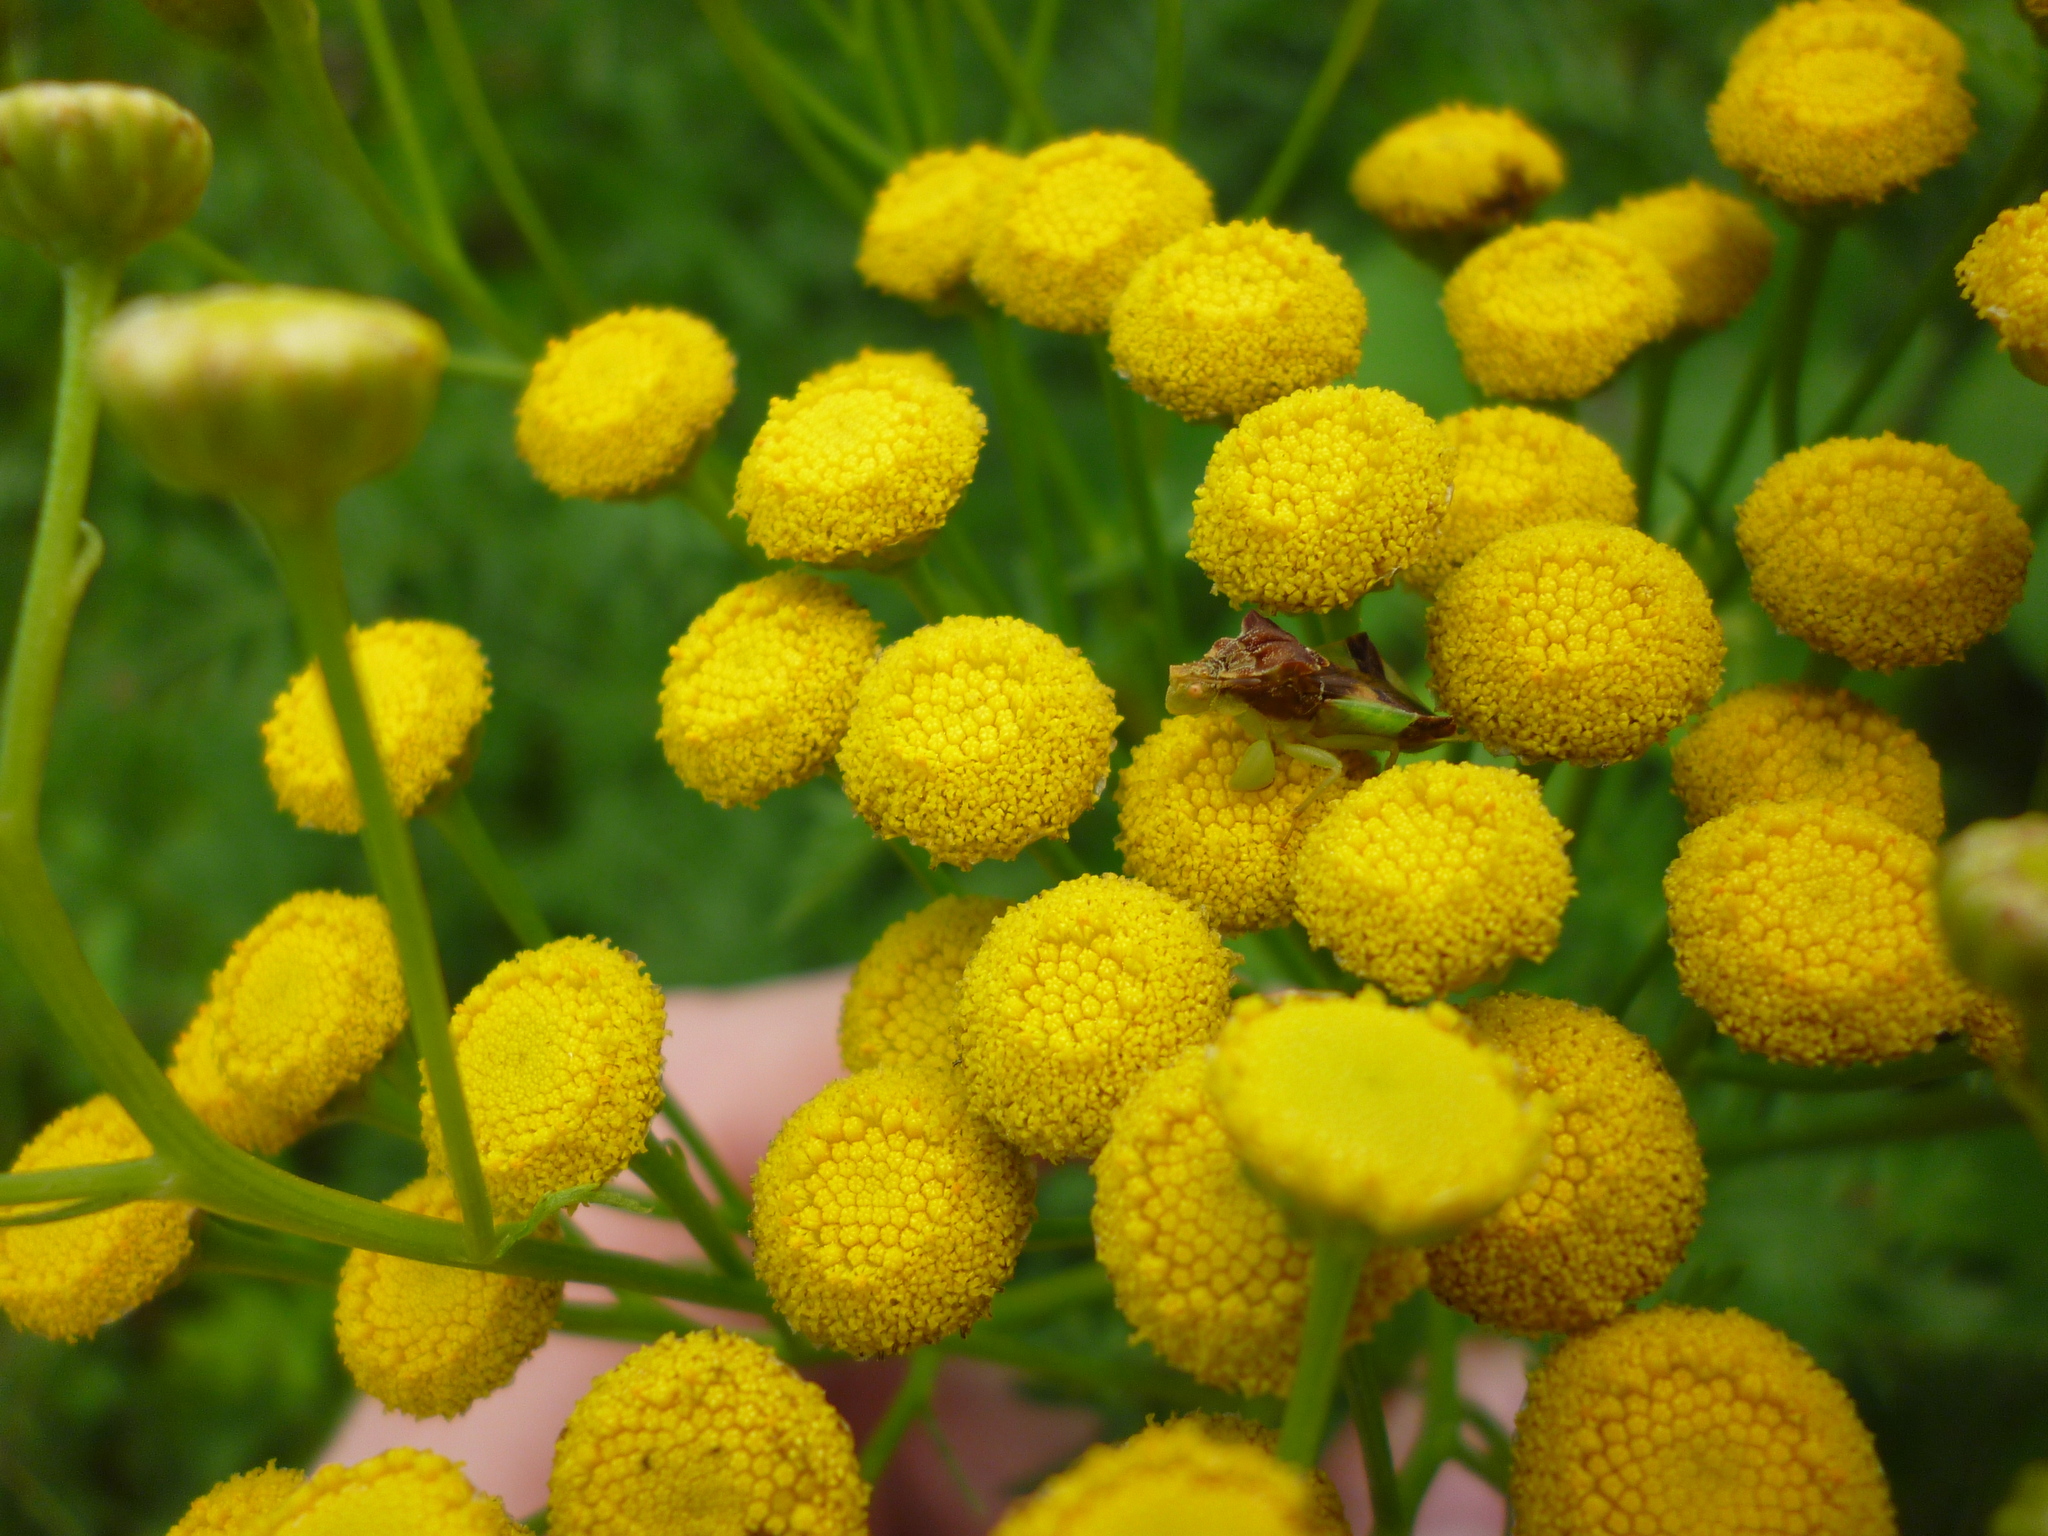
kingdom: Plantae
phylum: Tracheophyta
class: Magnoliopsida
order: Asterales
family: Asteraceae
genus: Tanacetum
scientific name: Tanacetum vulgare
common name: Common tansy
